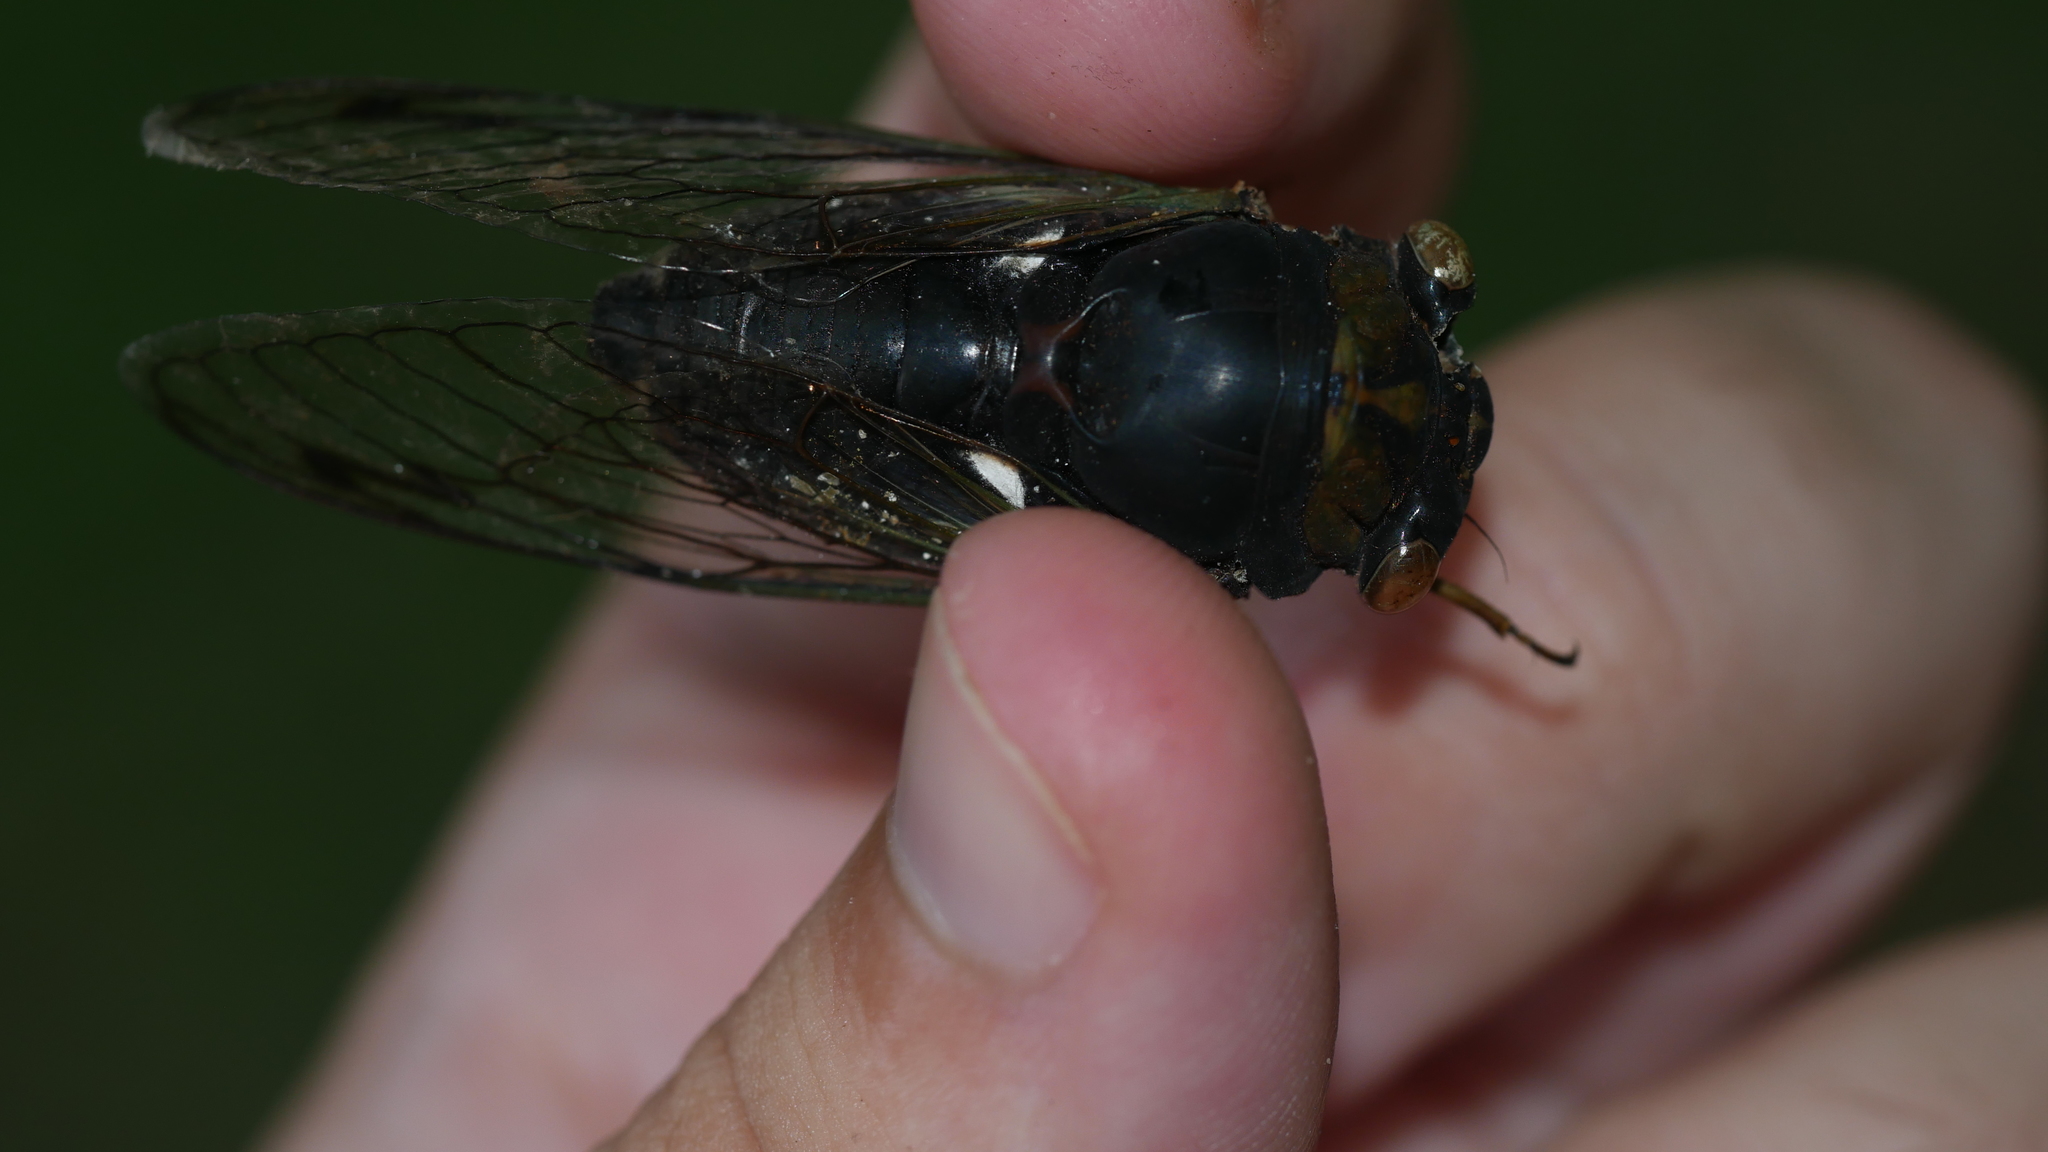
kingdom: Animalia
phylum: Arthropoda
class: Insecta
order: Hemiptera
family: Cicadidae
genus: Neotibicen
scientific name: Neotibicen
